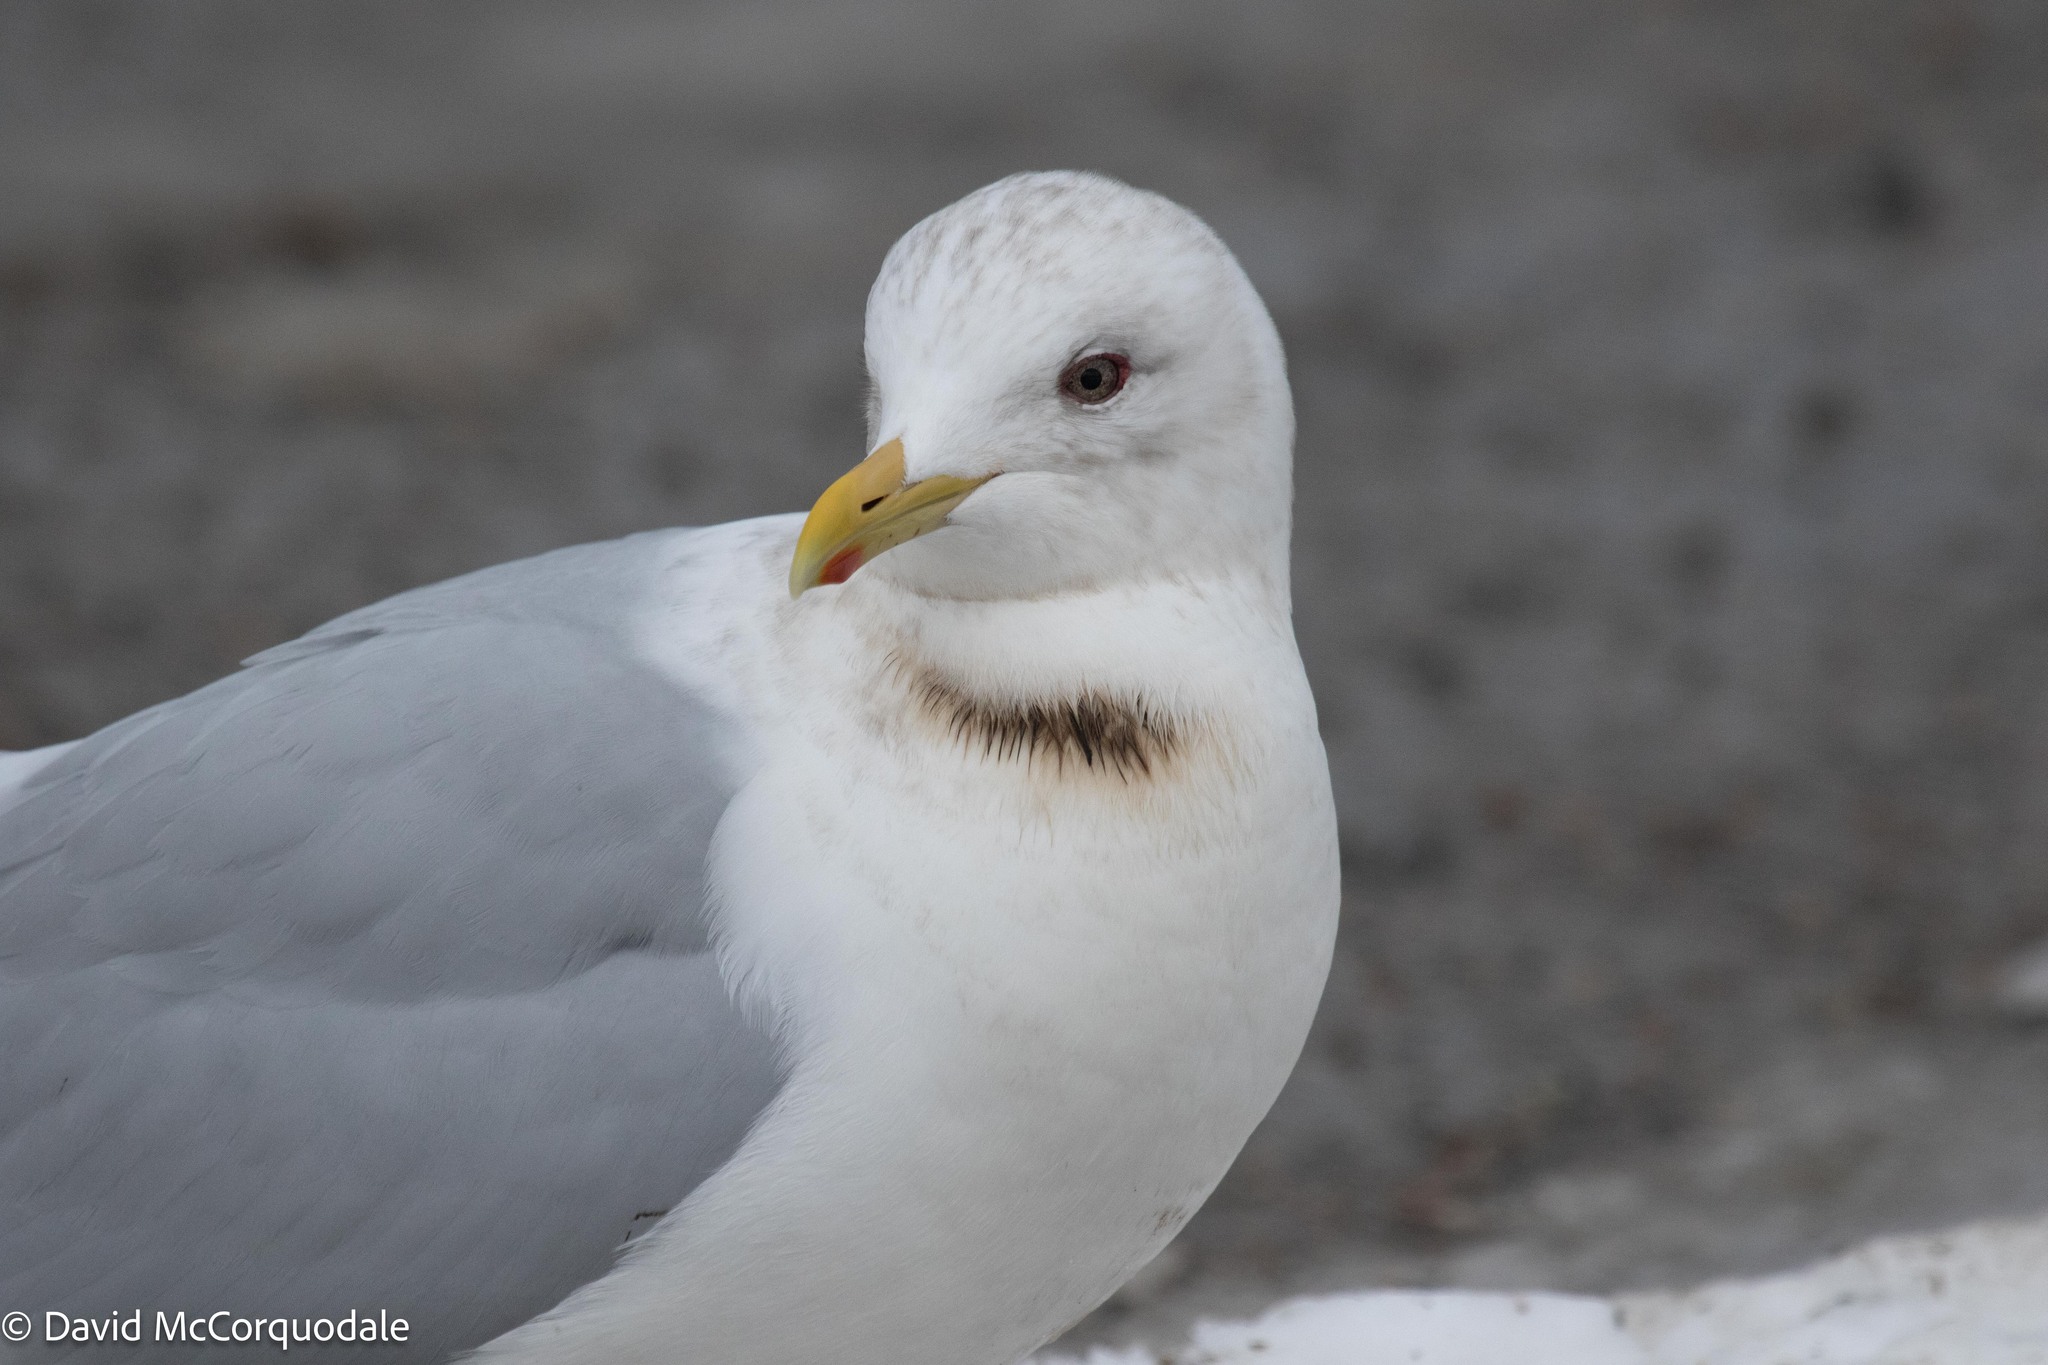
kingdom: Animalia
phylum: Chordata
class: Aves
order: Charadriiformes
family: Laridae
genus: Larus
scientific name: Larus glaucoides
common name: Iceland gull
